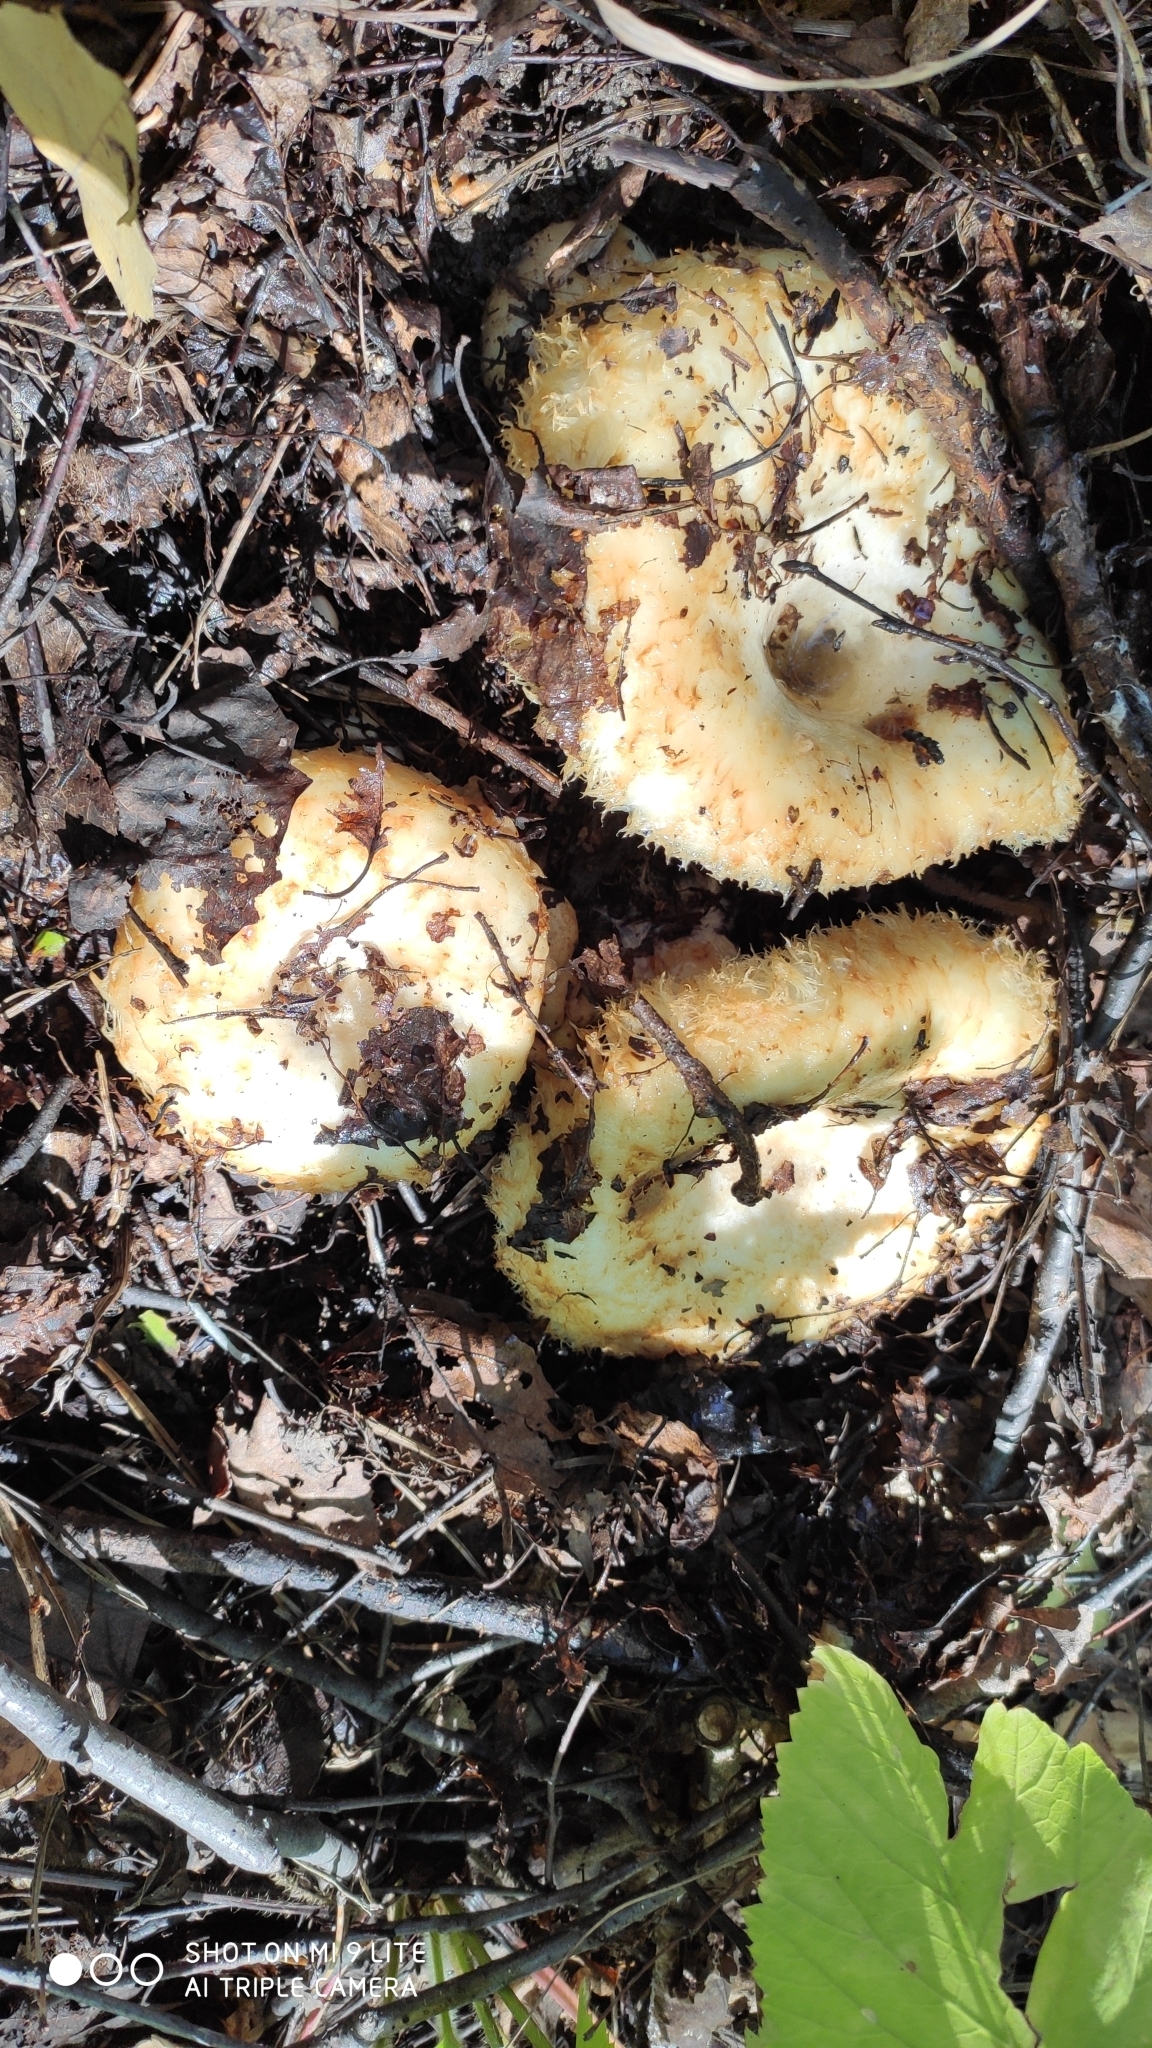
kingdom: Fungi
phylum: Basidiomycota
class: Agaricomycetes
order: Russulales
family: Russulaceae
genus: Lactarius
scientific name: Lactarius resimus
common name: Rollrim milkcap
